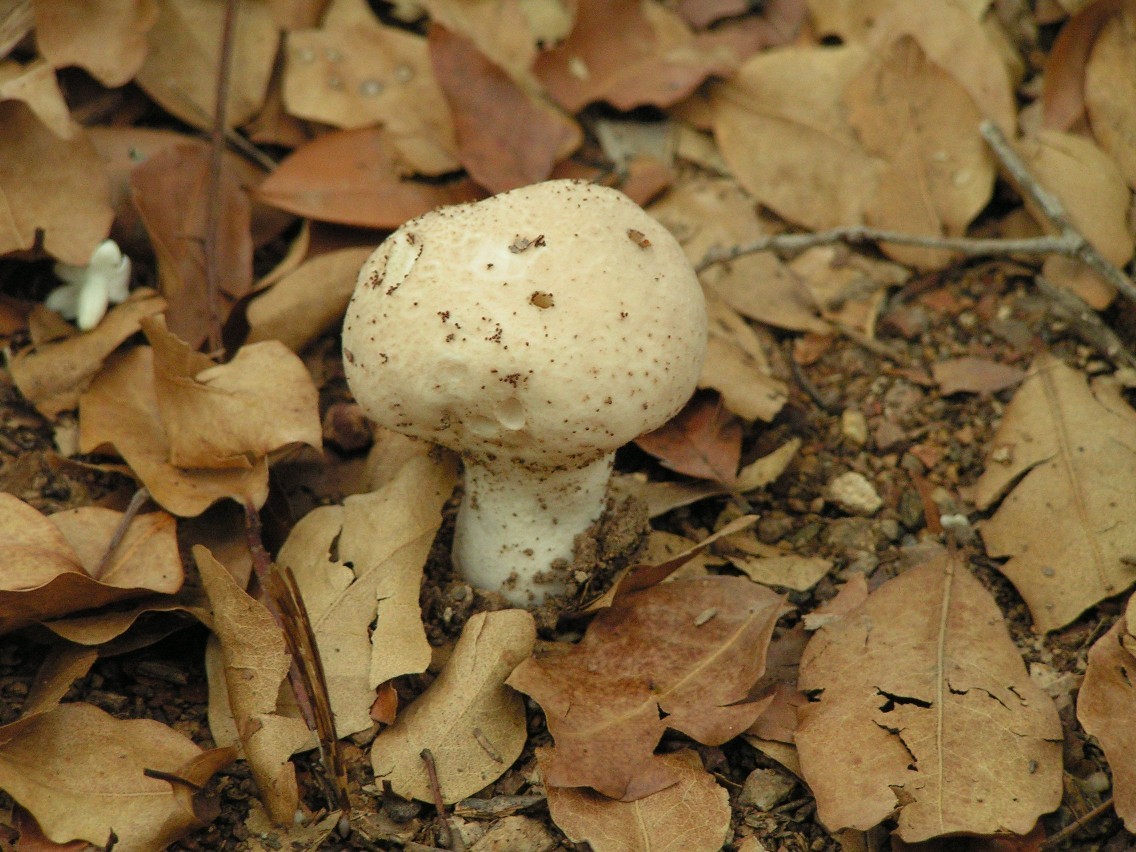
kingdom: Fungi
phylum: Basidiomycota
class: Agaricomycetes
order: Agaricales
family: Lycoperdaceae
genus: Calvatia
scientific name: Calvatia
